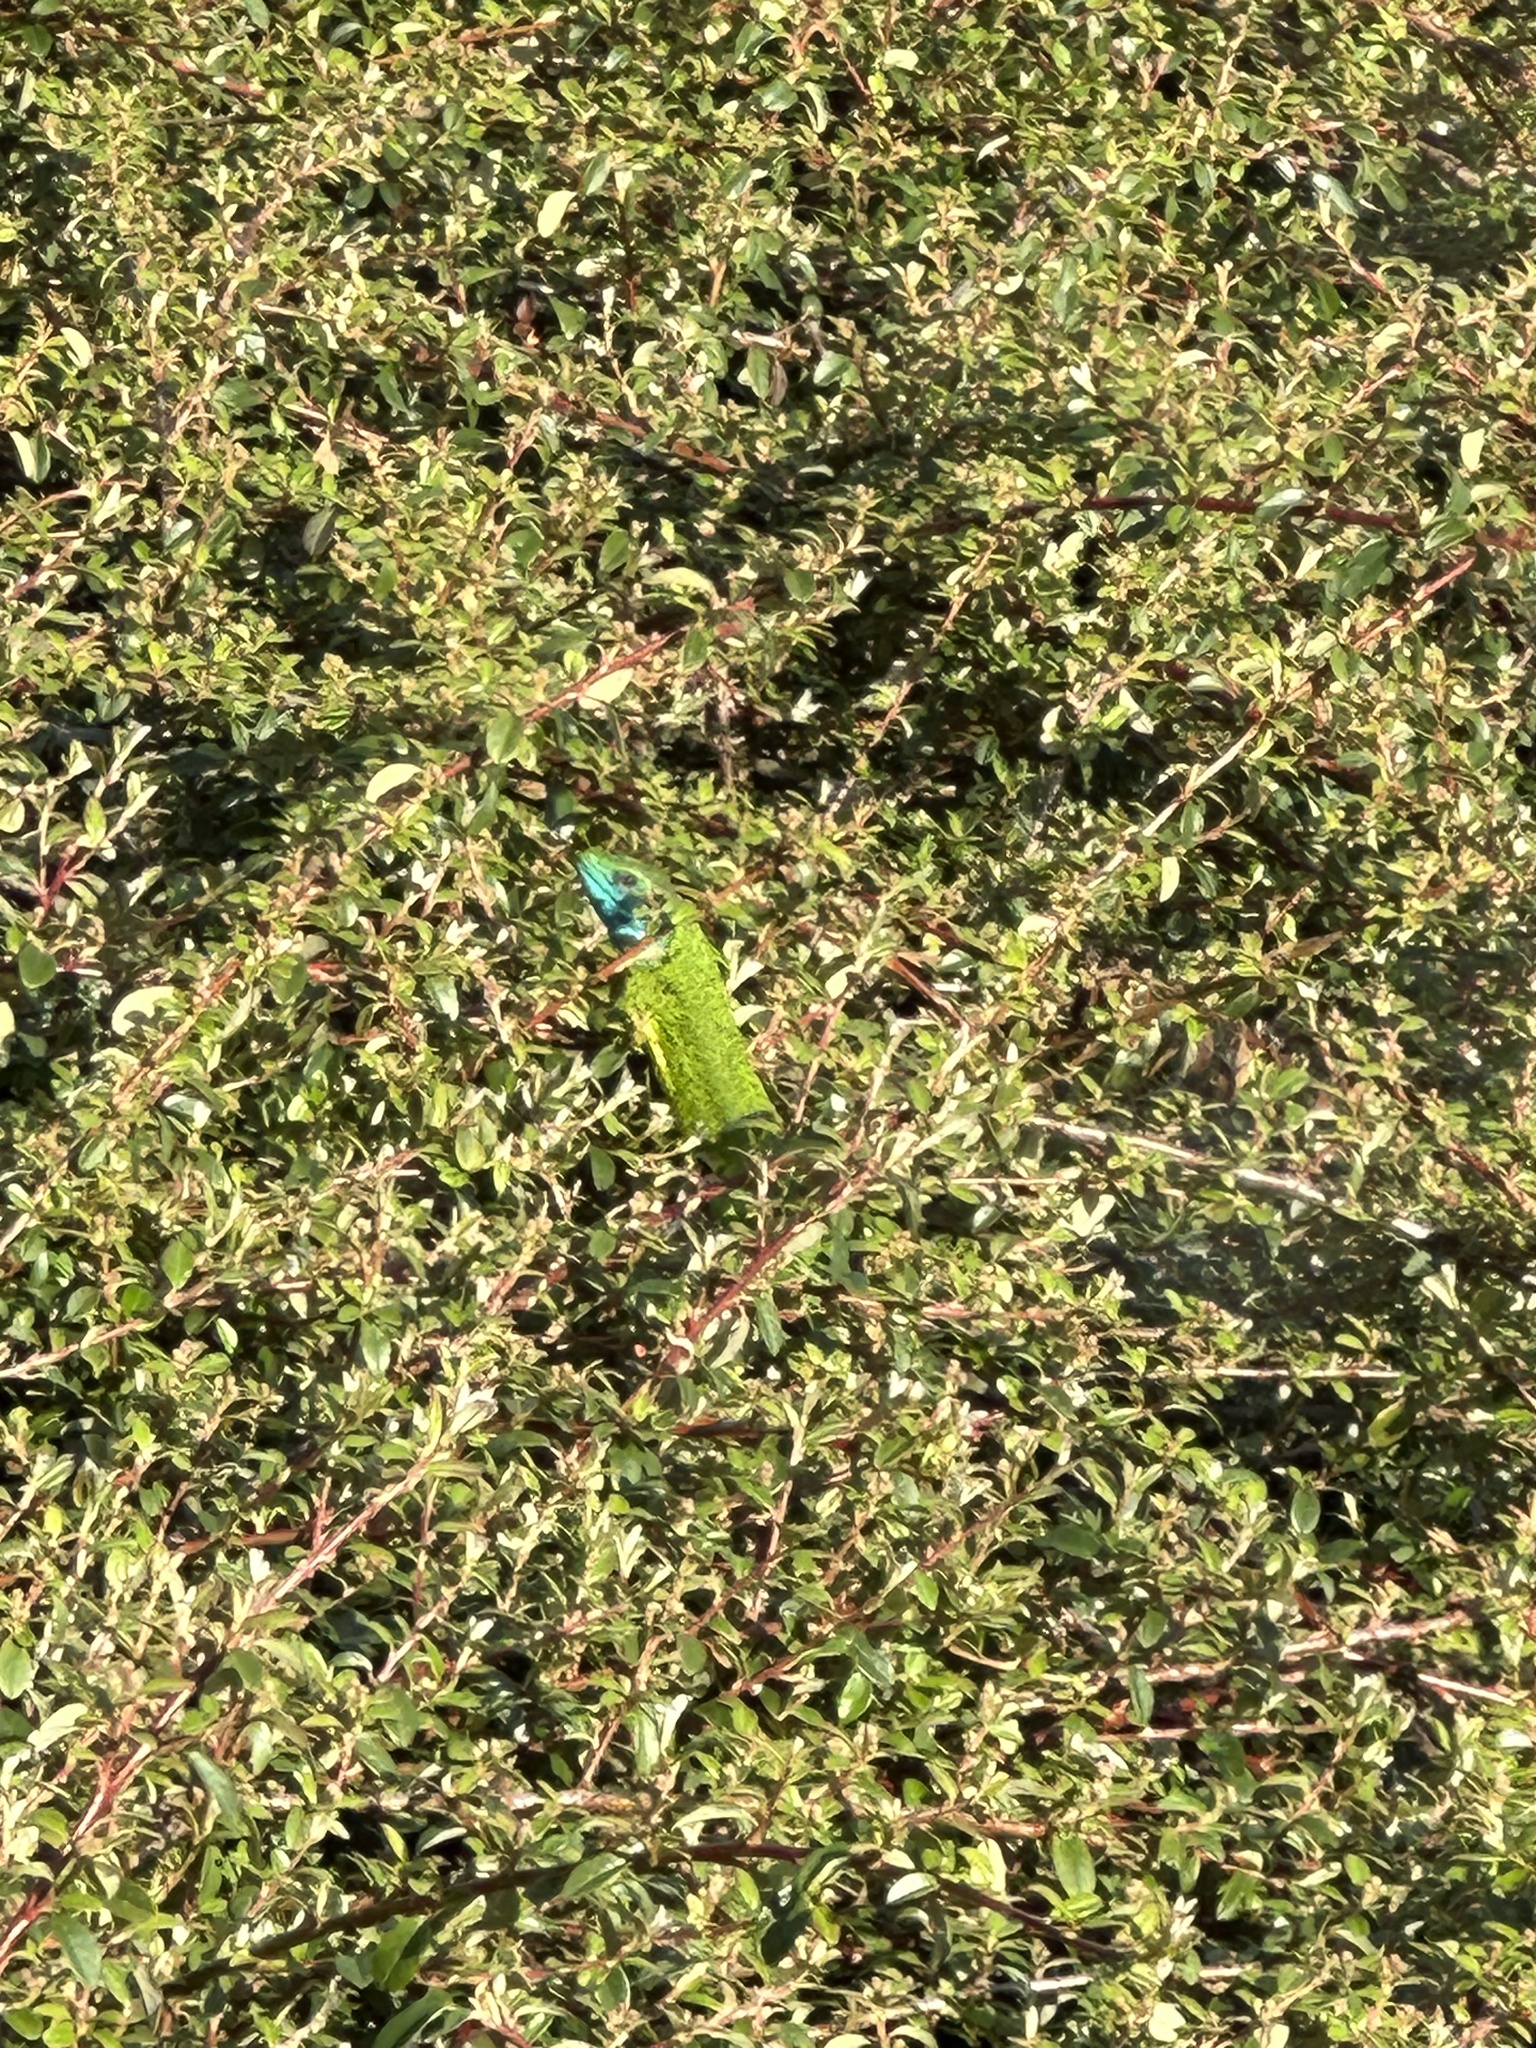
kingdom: Animalia
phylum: Chordata
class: Squamata
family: Lacertidae
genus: Lacerta
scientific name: Lacerta viridis
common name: European green lizard
